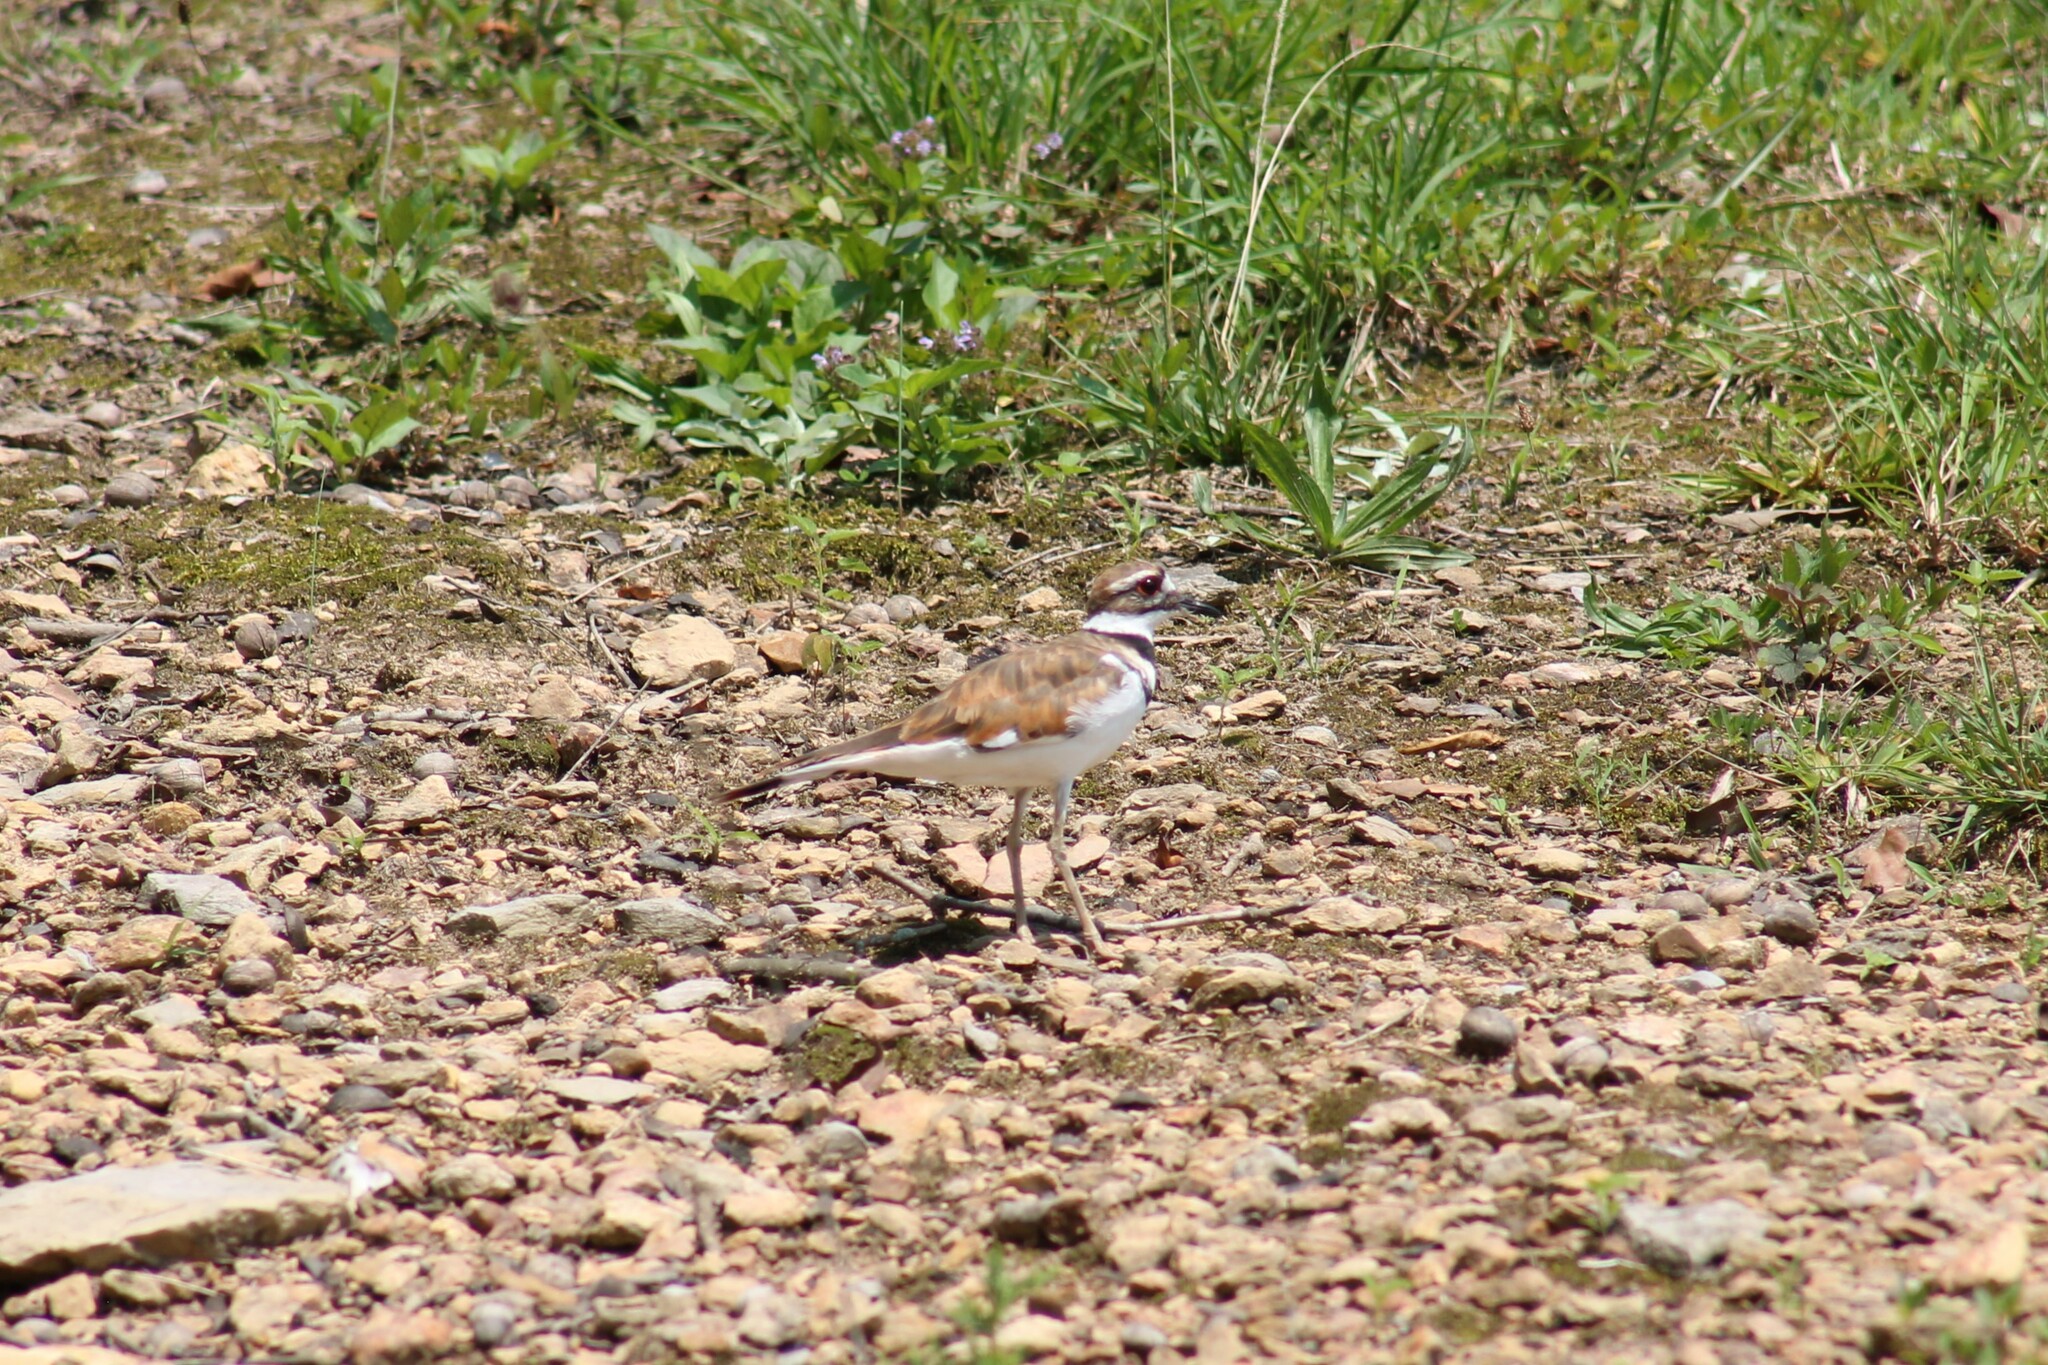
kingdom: Animalia
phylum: Chordata
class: Aves
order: Charadriiformes
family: Charadriidae
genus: Charadrius
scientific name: Charadrius vociferus
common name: Killdeer
